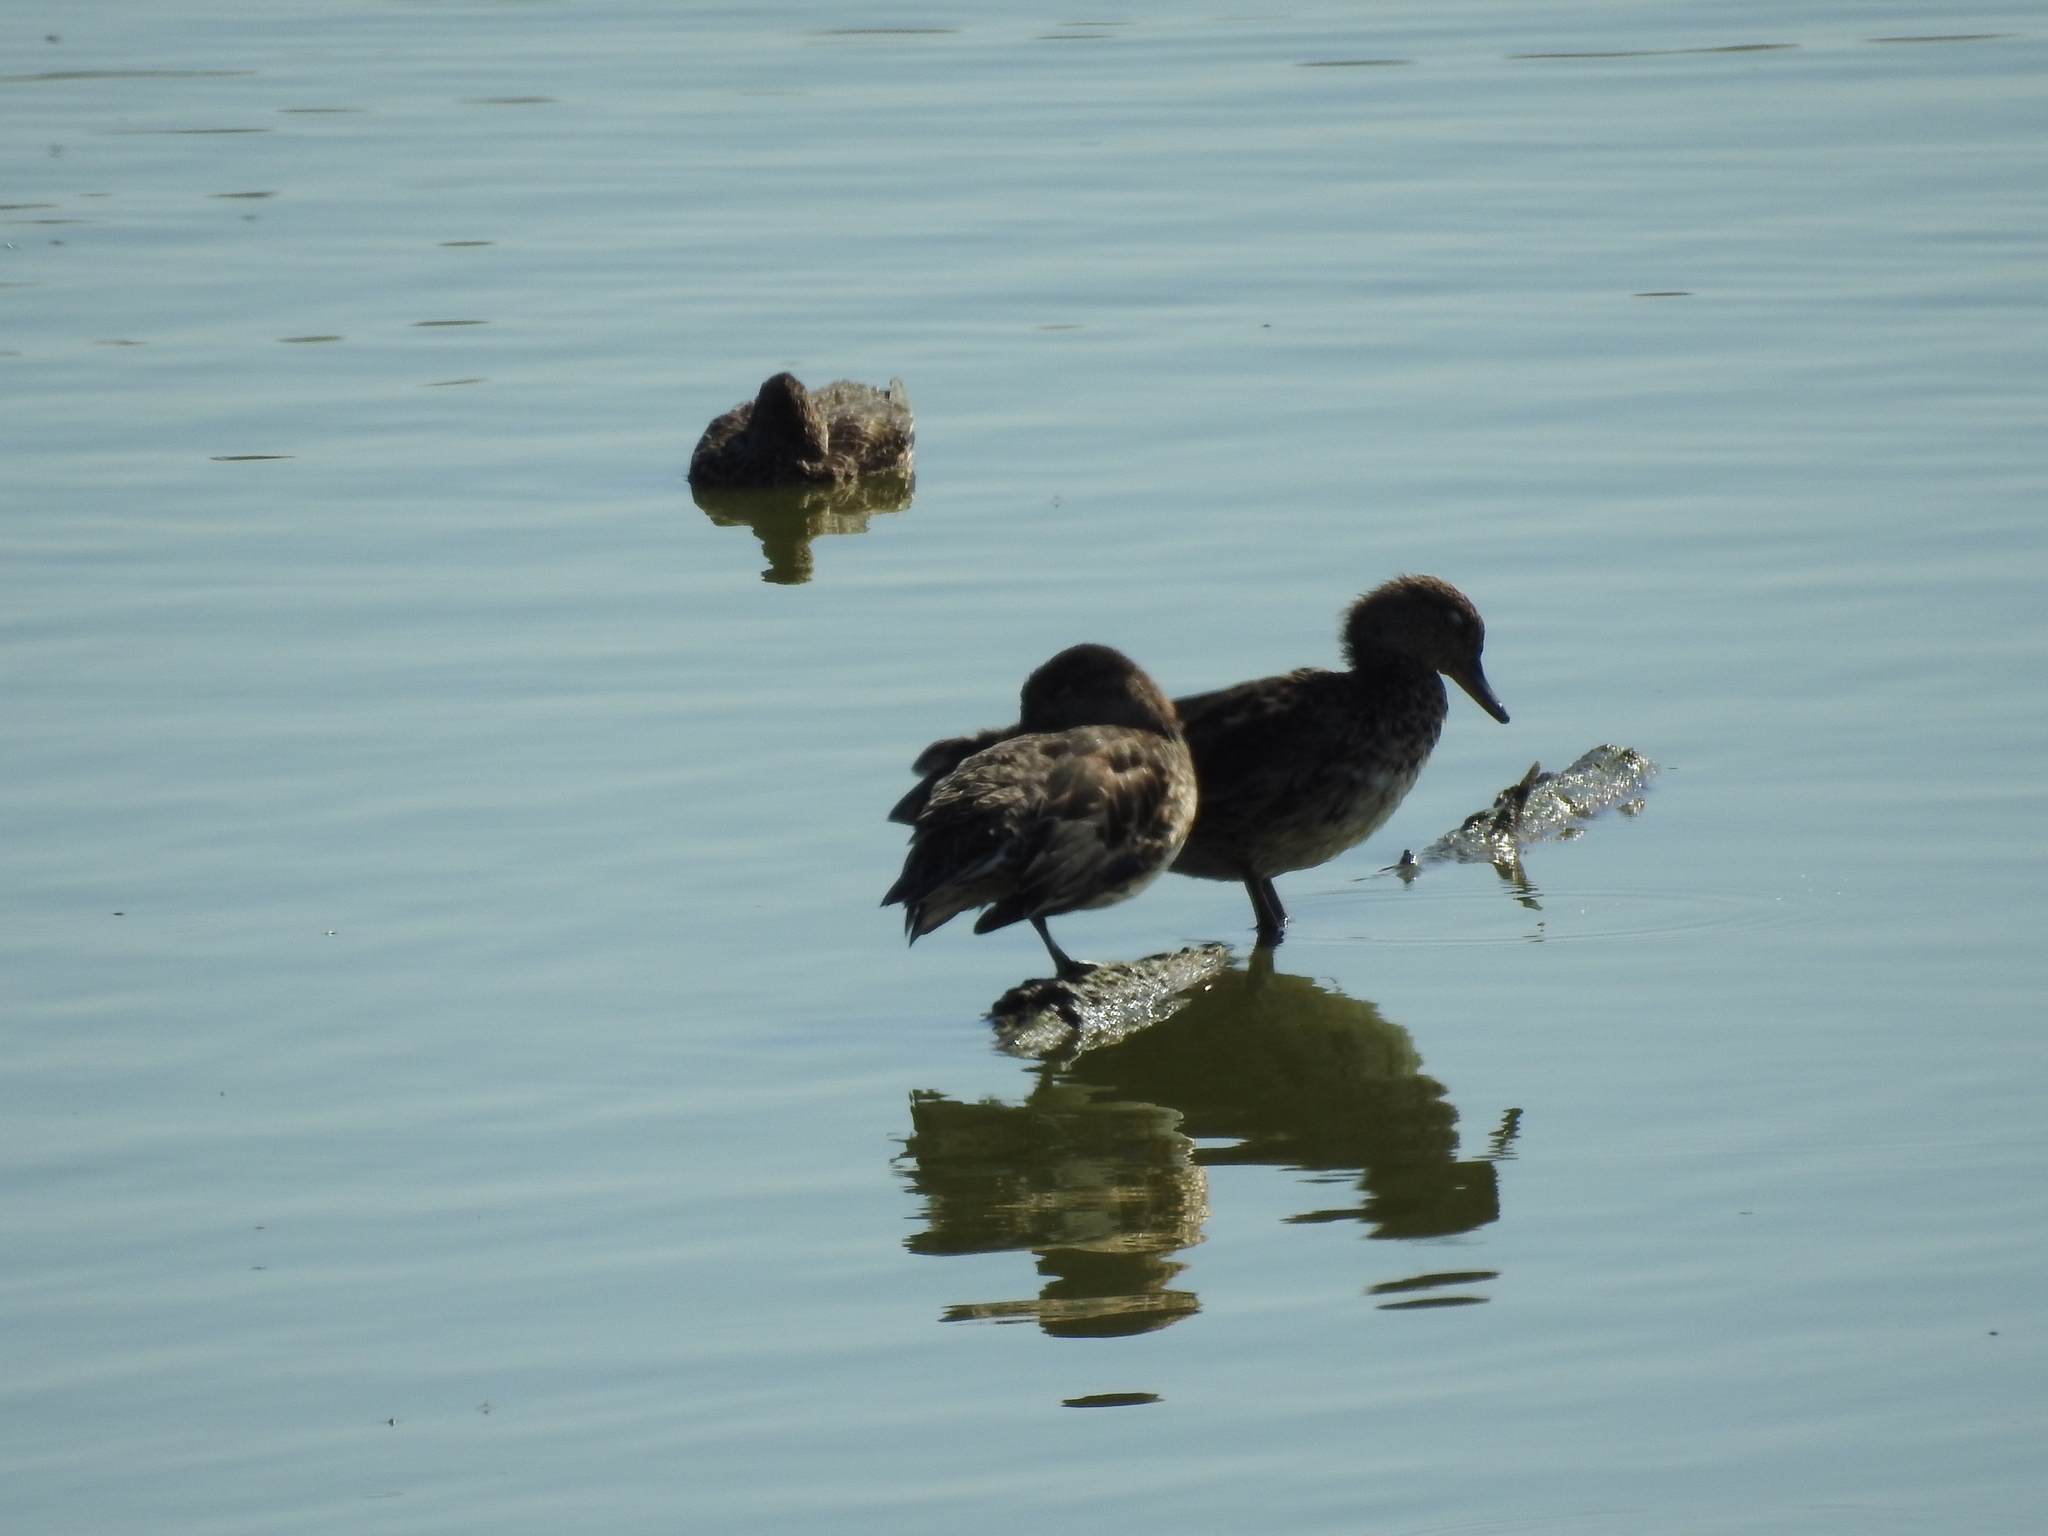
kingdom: Animalia
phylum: Chordata
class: Aves
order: Anseriformes
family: Anatidae
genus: Anas
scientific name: Anas crecca
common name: Eurasian teal
